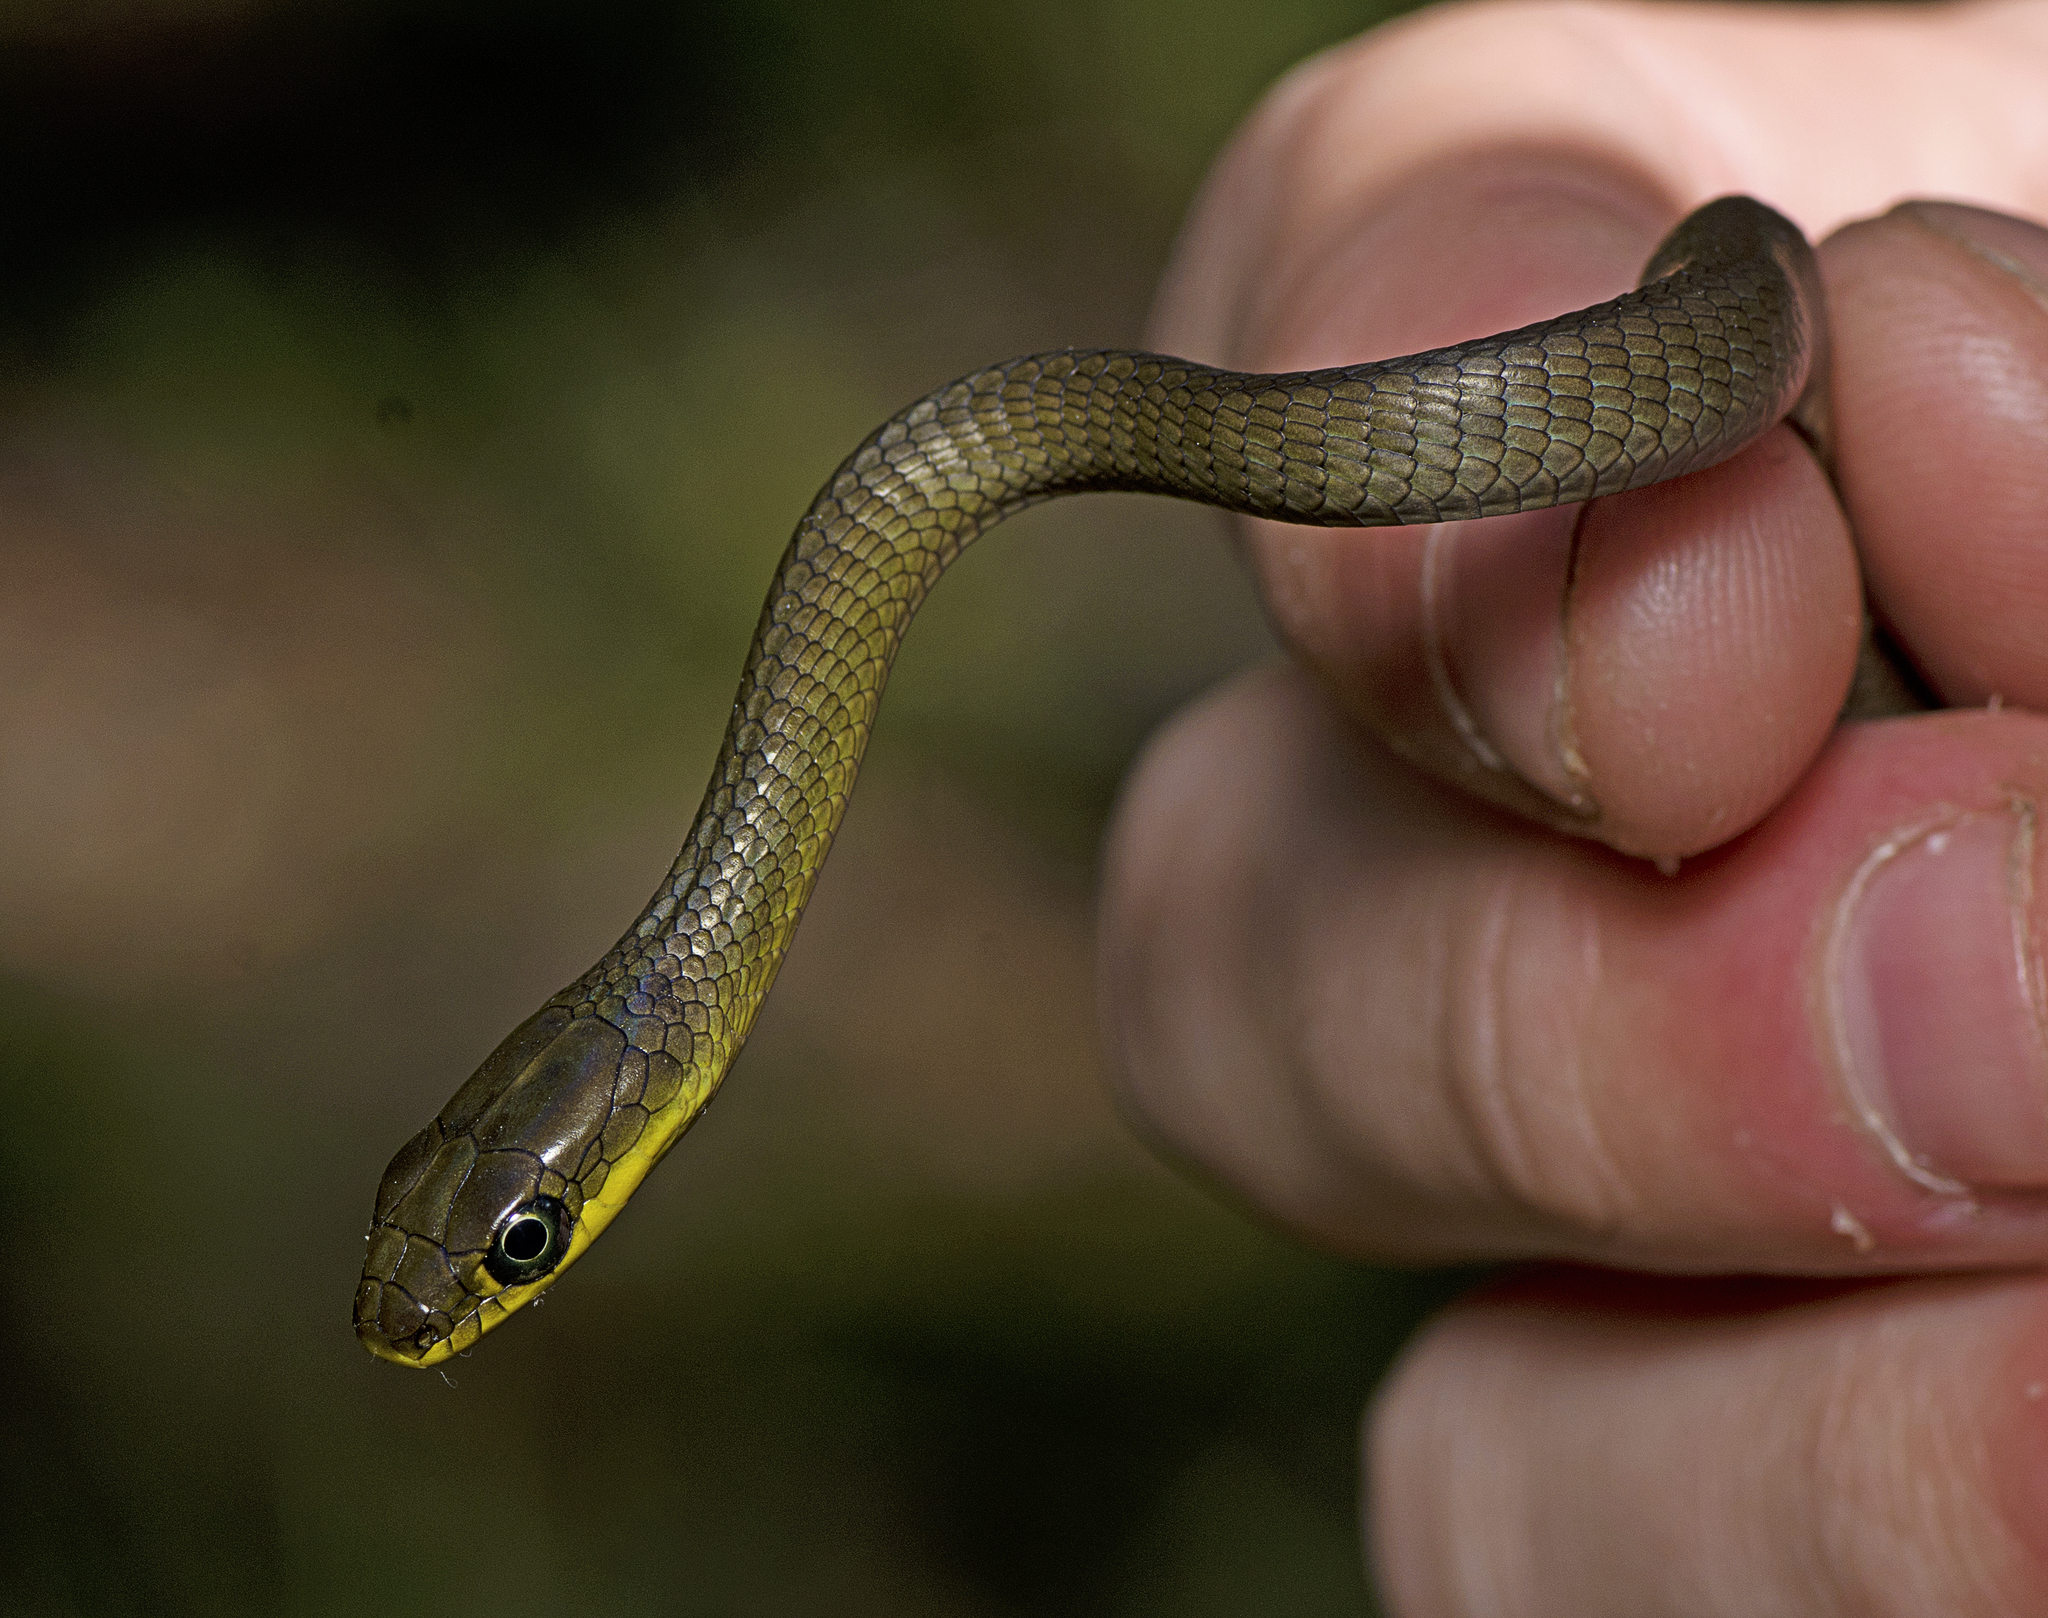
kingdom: Animalia
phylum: Chordata
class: Squamata
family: Colubridae
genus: Dendrelaphis
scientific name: Dendrelaphis punctulatus
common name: Common tree snake
